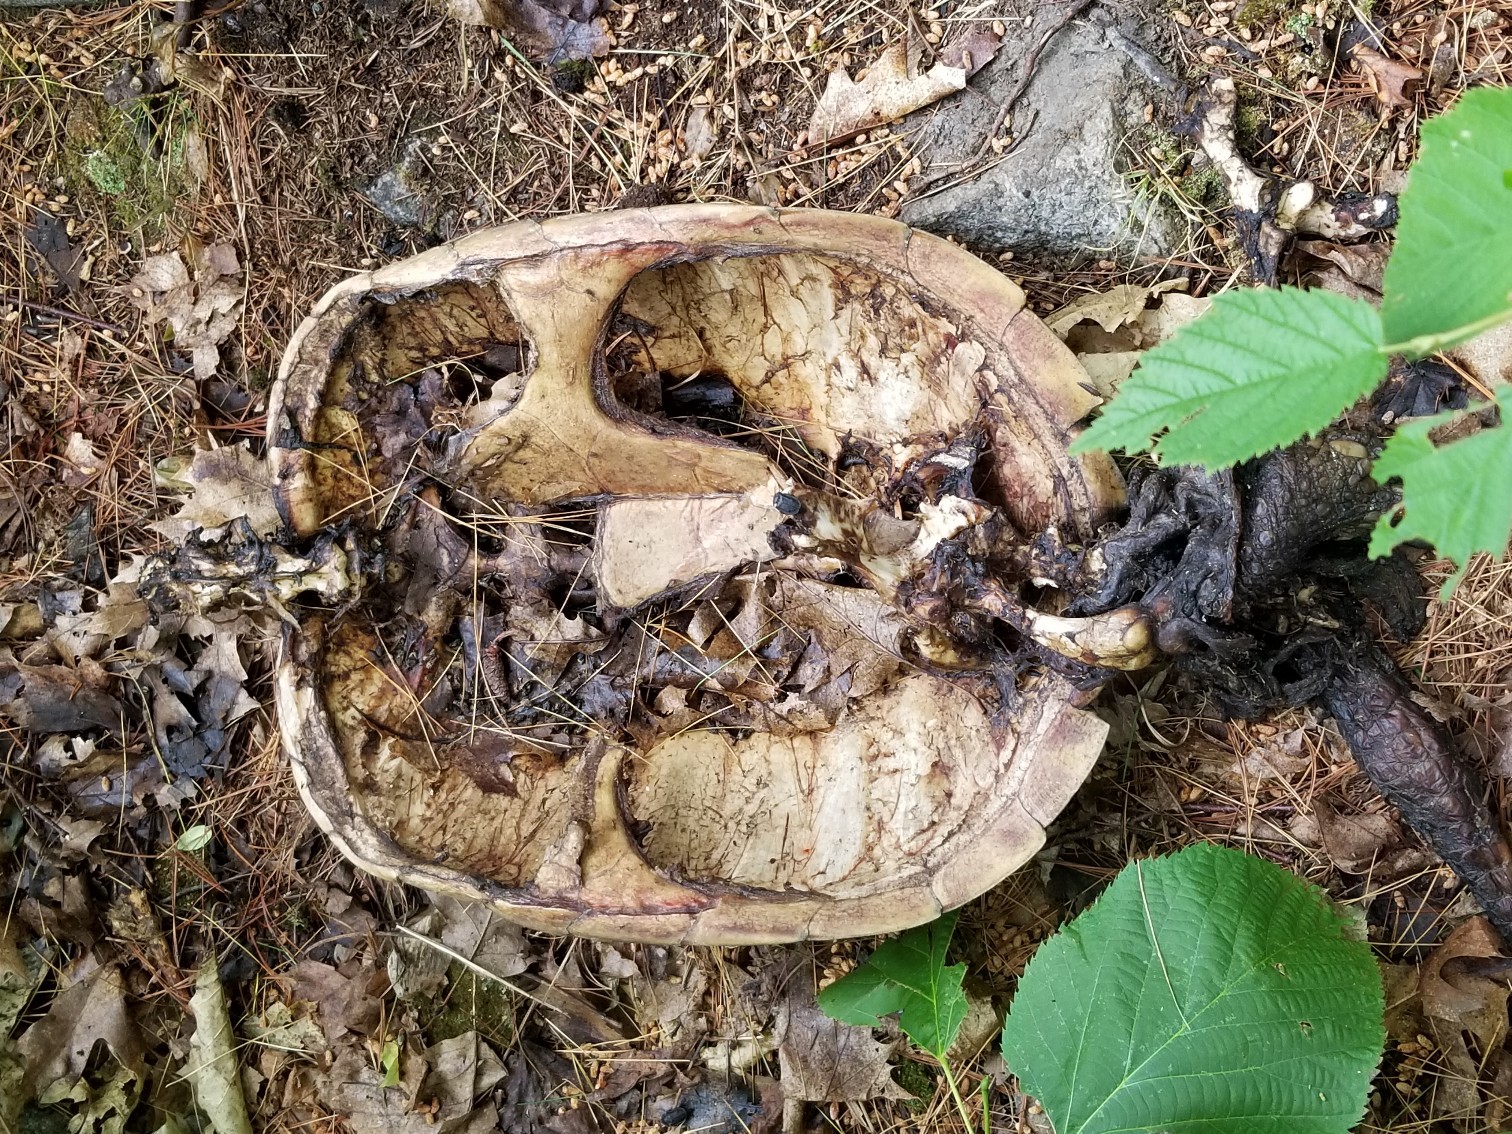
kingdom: Animalia
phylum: Chordata
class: Testudines
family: Chelydridae
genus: Chelydra
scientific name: Chelydra serpentina
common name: Common snapping turtle
